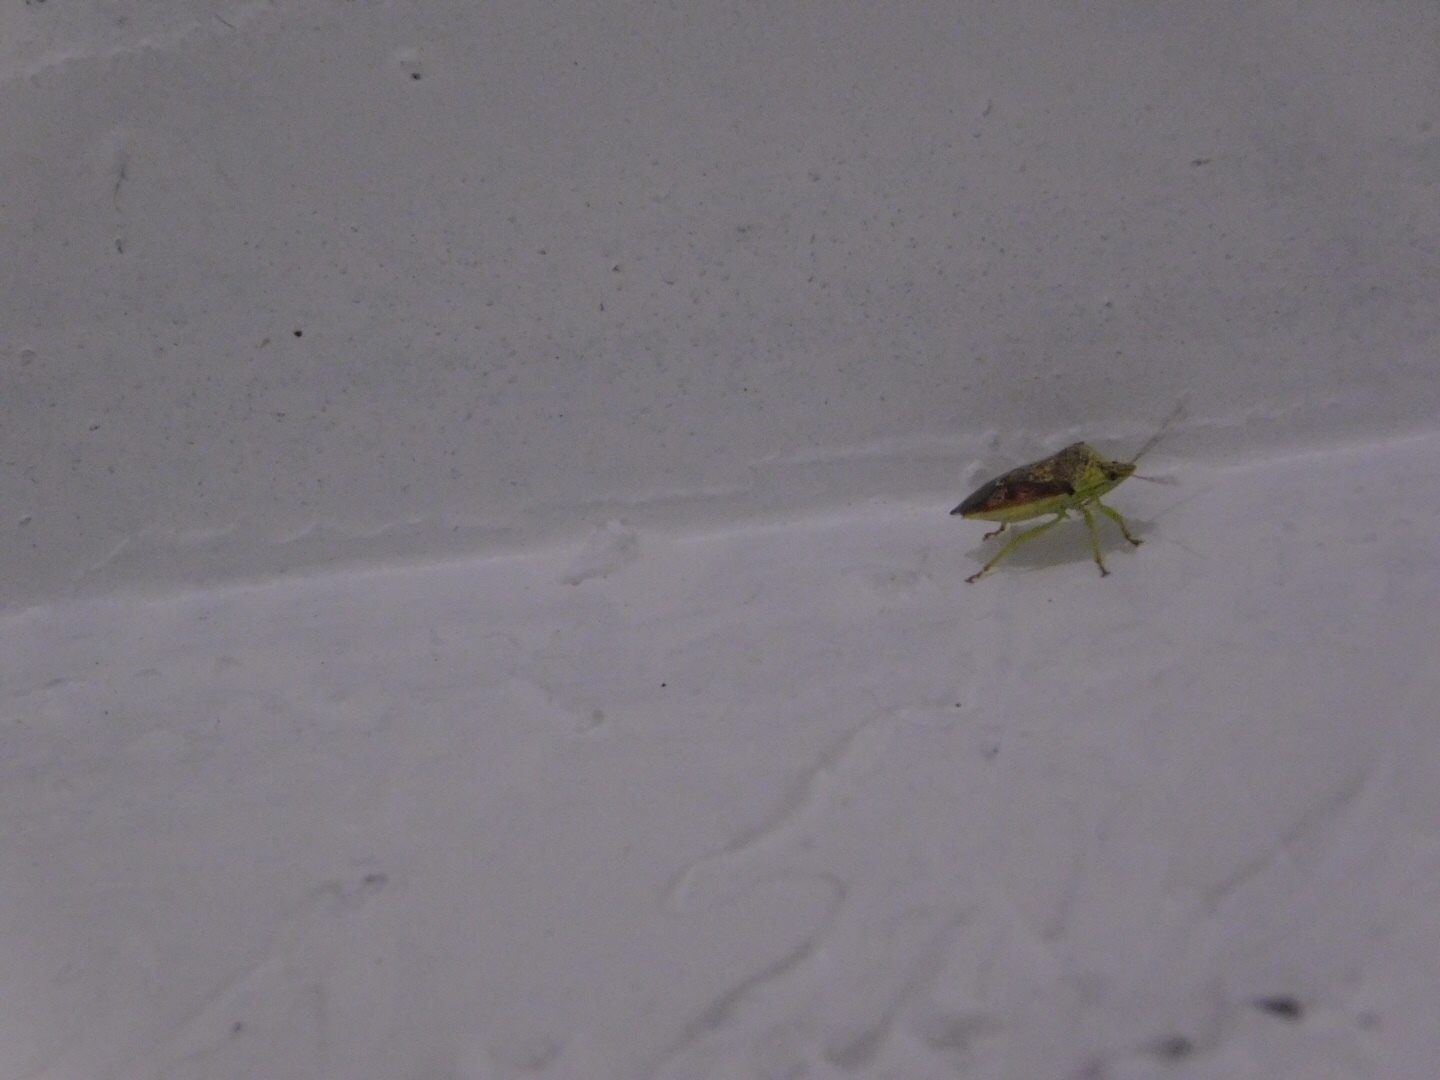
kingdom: Animalia
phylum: Arthropoda
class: Insecta
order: Hemiptera
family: Pentatomidae
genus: Tyrannocoris
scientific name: Tyrannocoris jole
